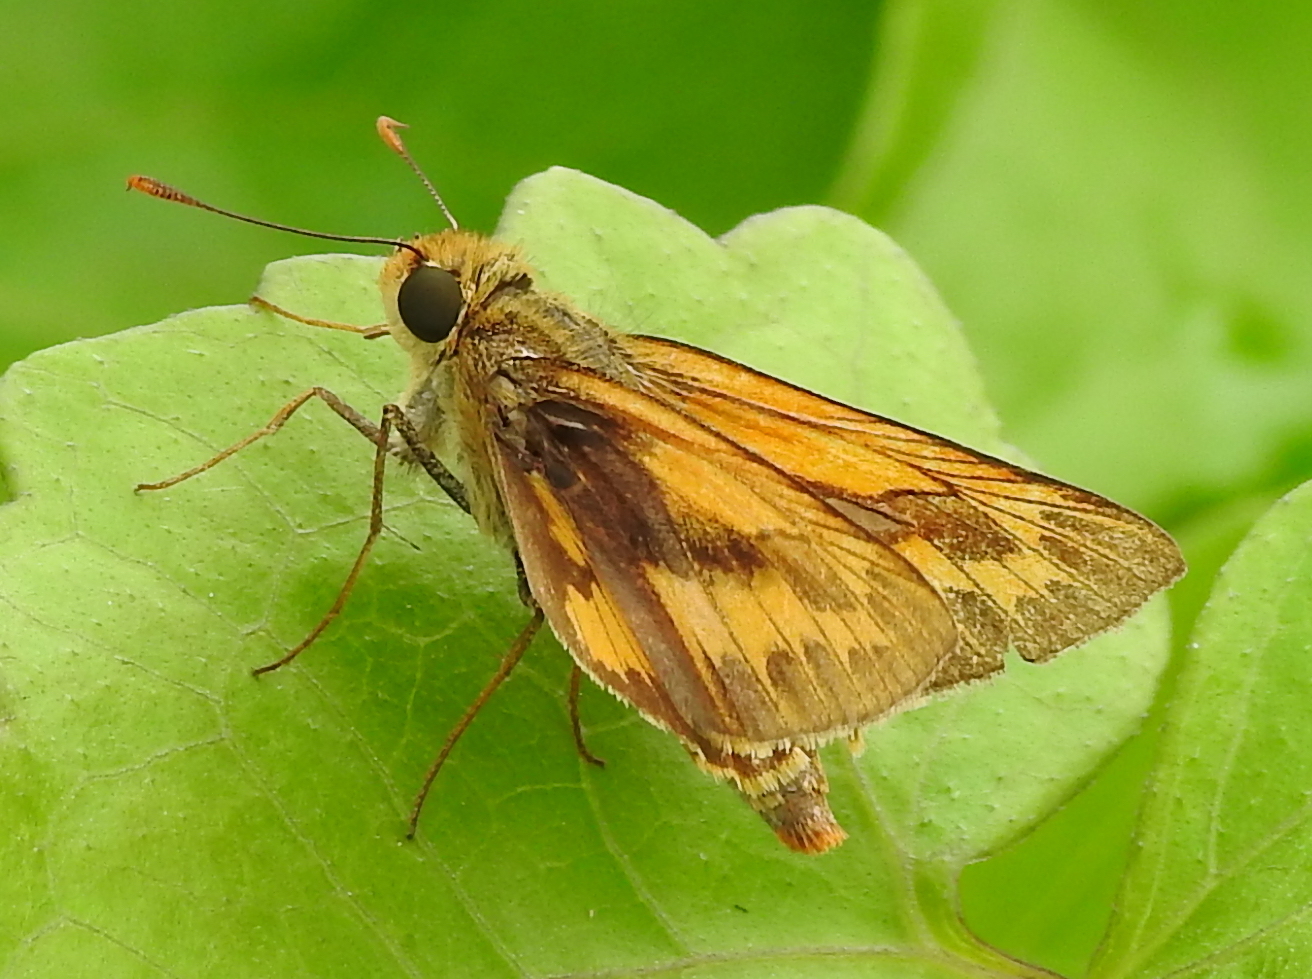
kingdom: Animalia
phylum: Arthropoda
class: Insecta
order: Lepidoptera
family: Hesperiidae
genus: Telicota
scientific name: Telicota colon
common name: Pale palm dart
